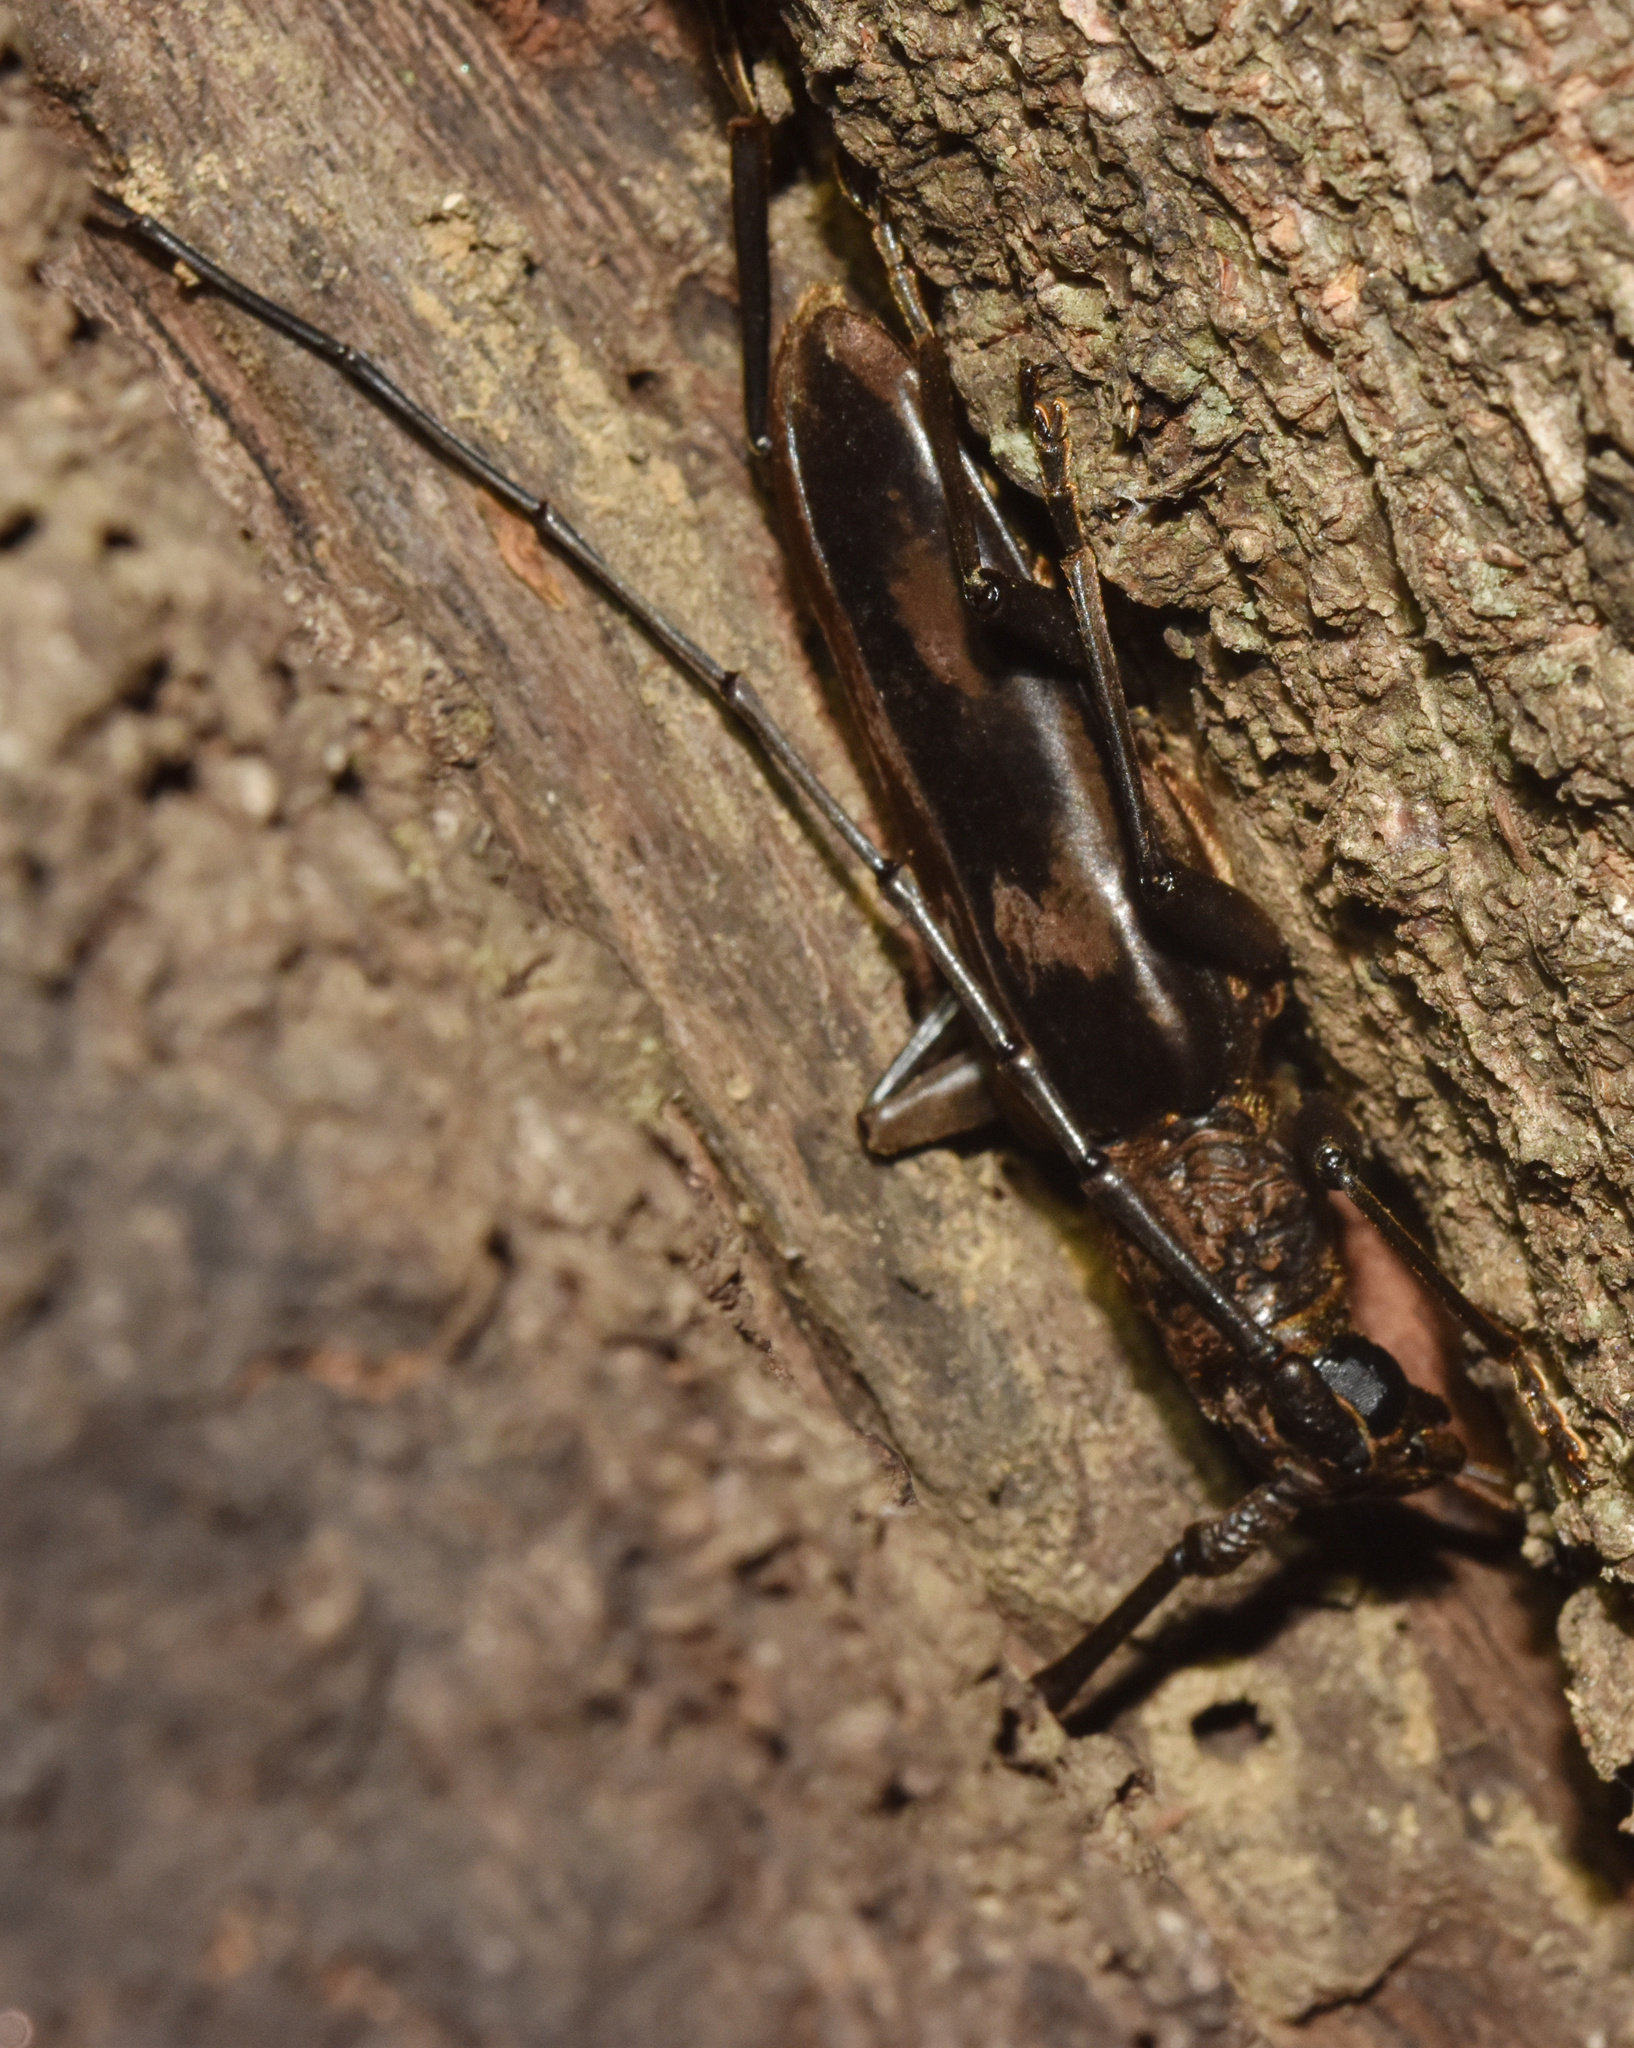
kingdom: Animalia
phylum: Arthropoda
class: Insecta
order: Coleoptera
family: Cerambycidae
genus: Pachydissus
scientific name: Pachydissus natalensis
